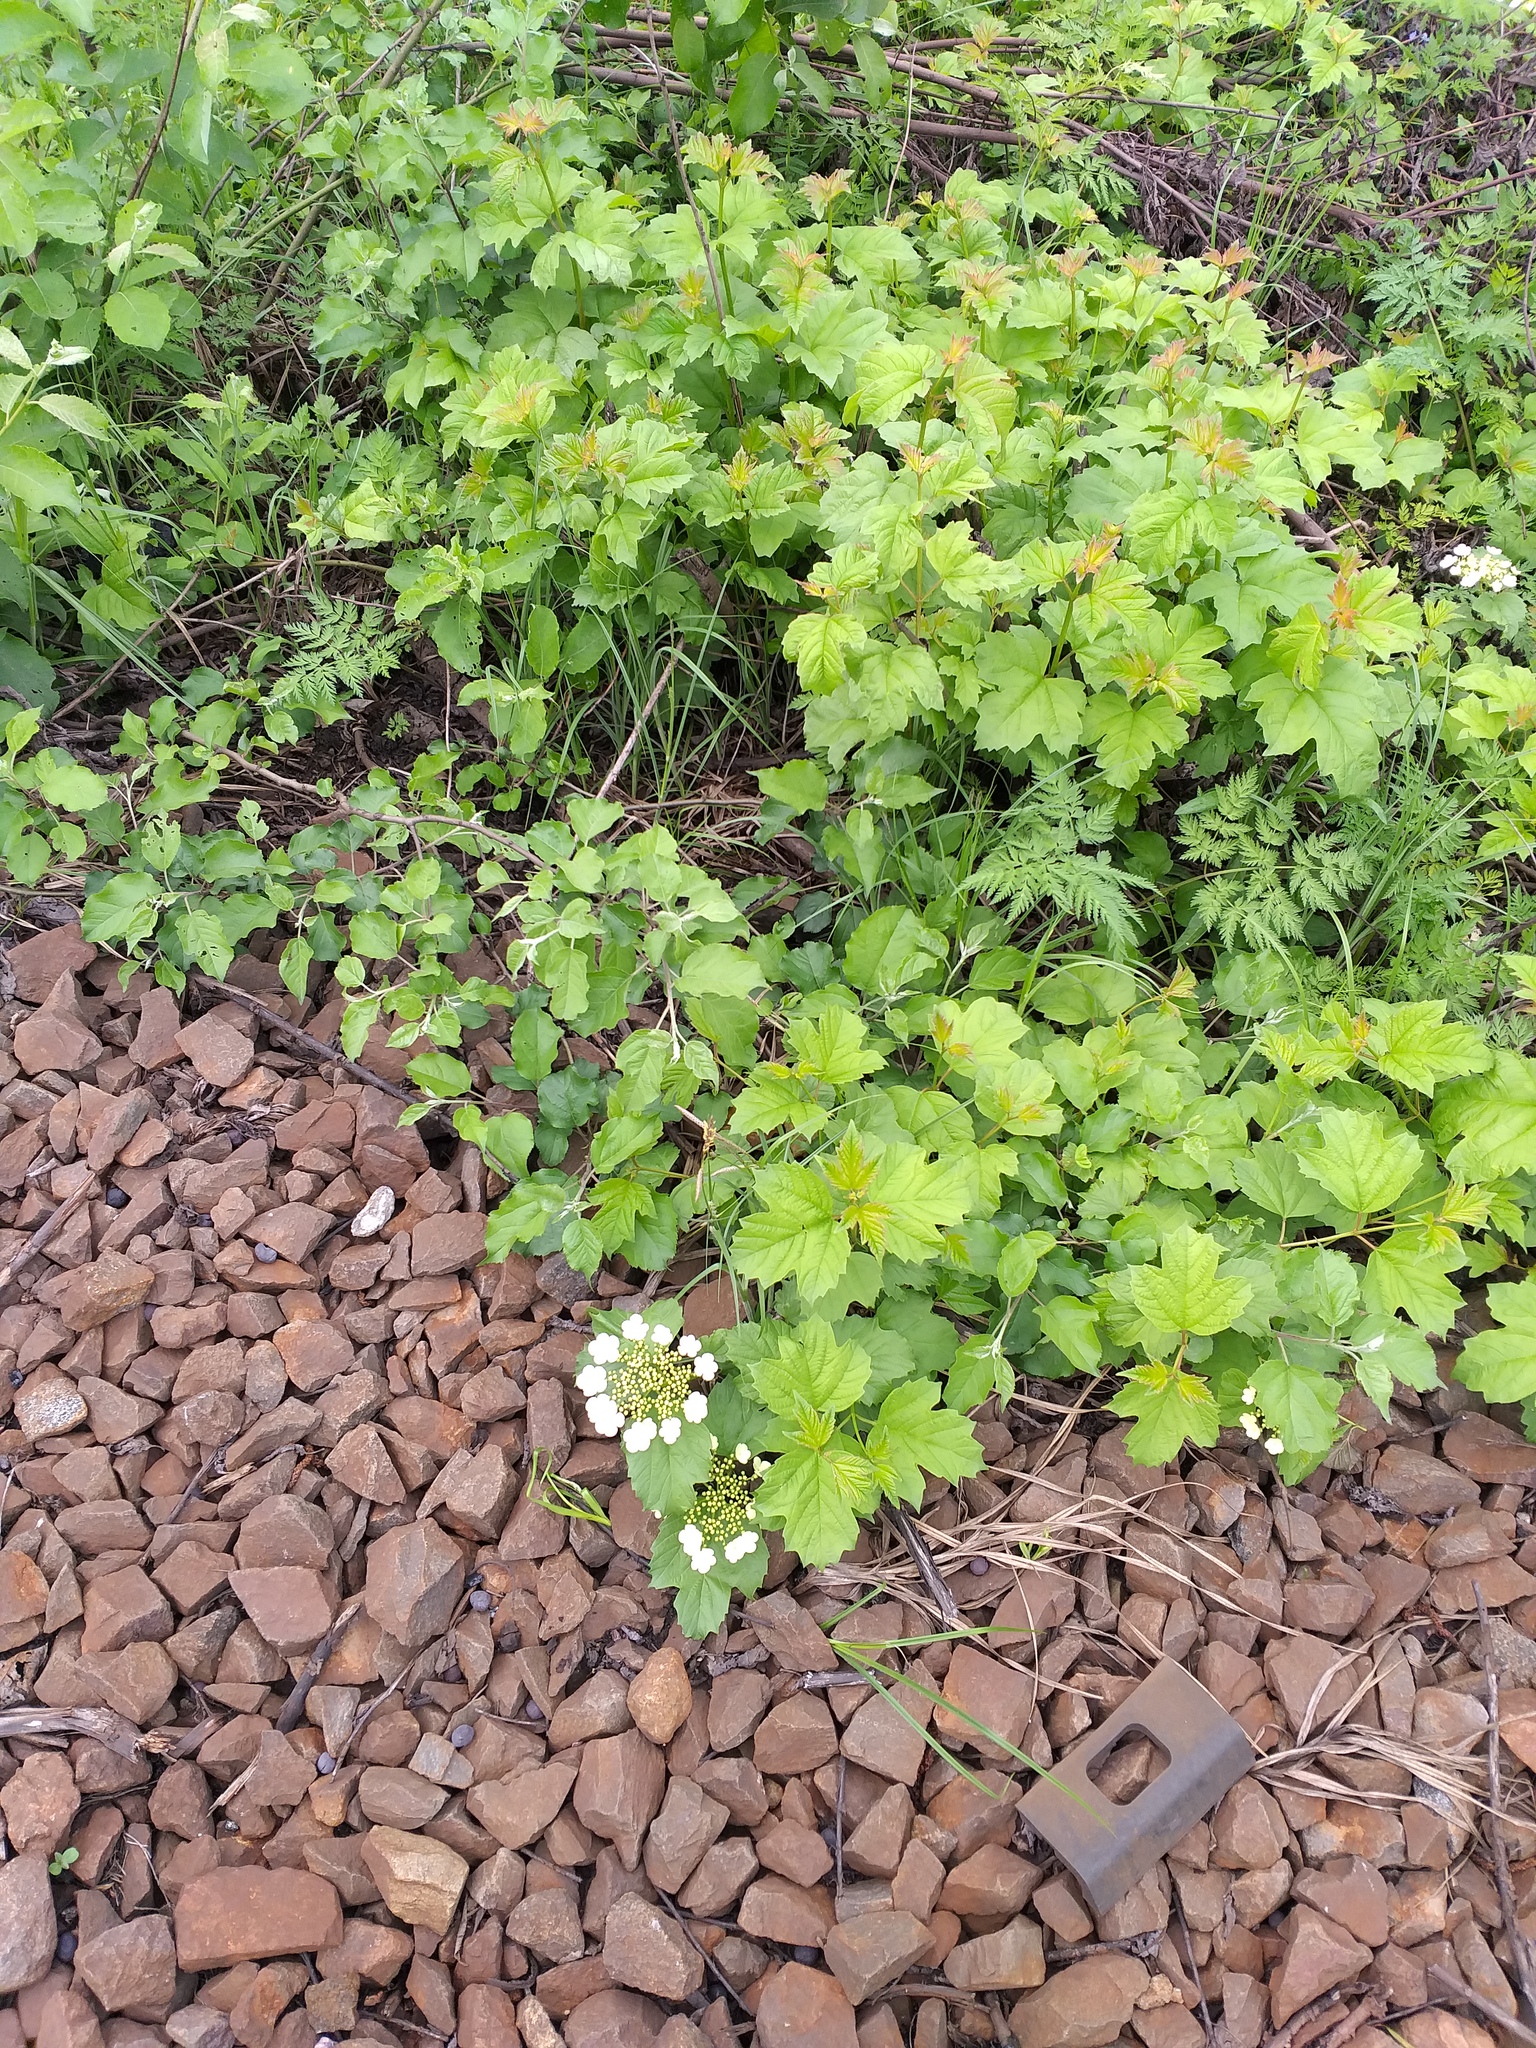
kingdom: Plantae
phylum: Tracheophyta
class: Magnoliopsida
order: Dipsacales
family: Viburnaceae
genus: Viburnum
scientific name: Viburnum opulus
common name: Guelder-rose
